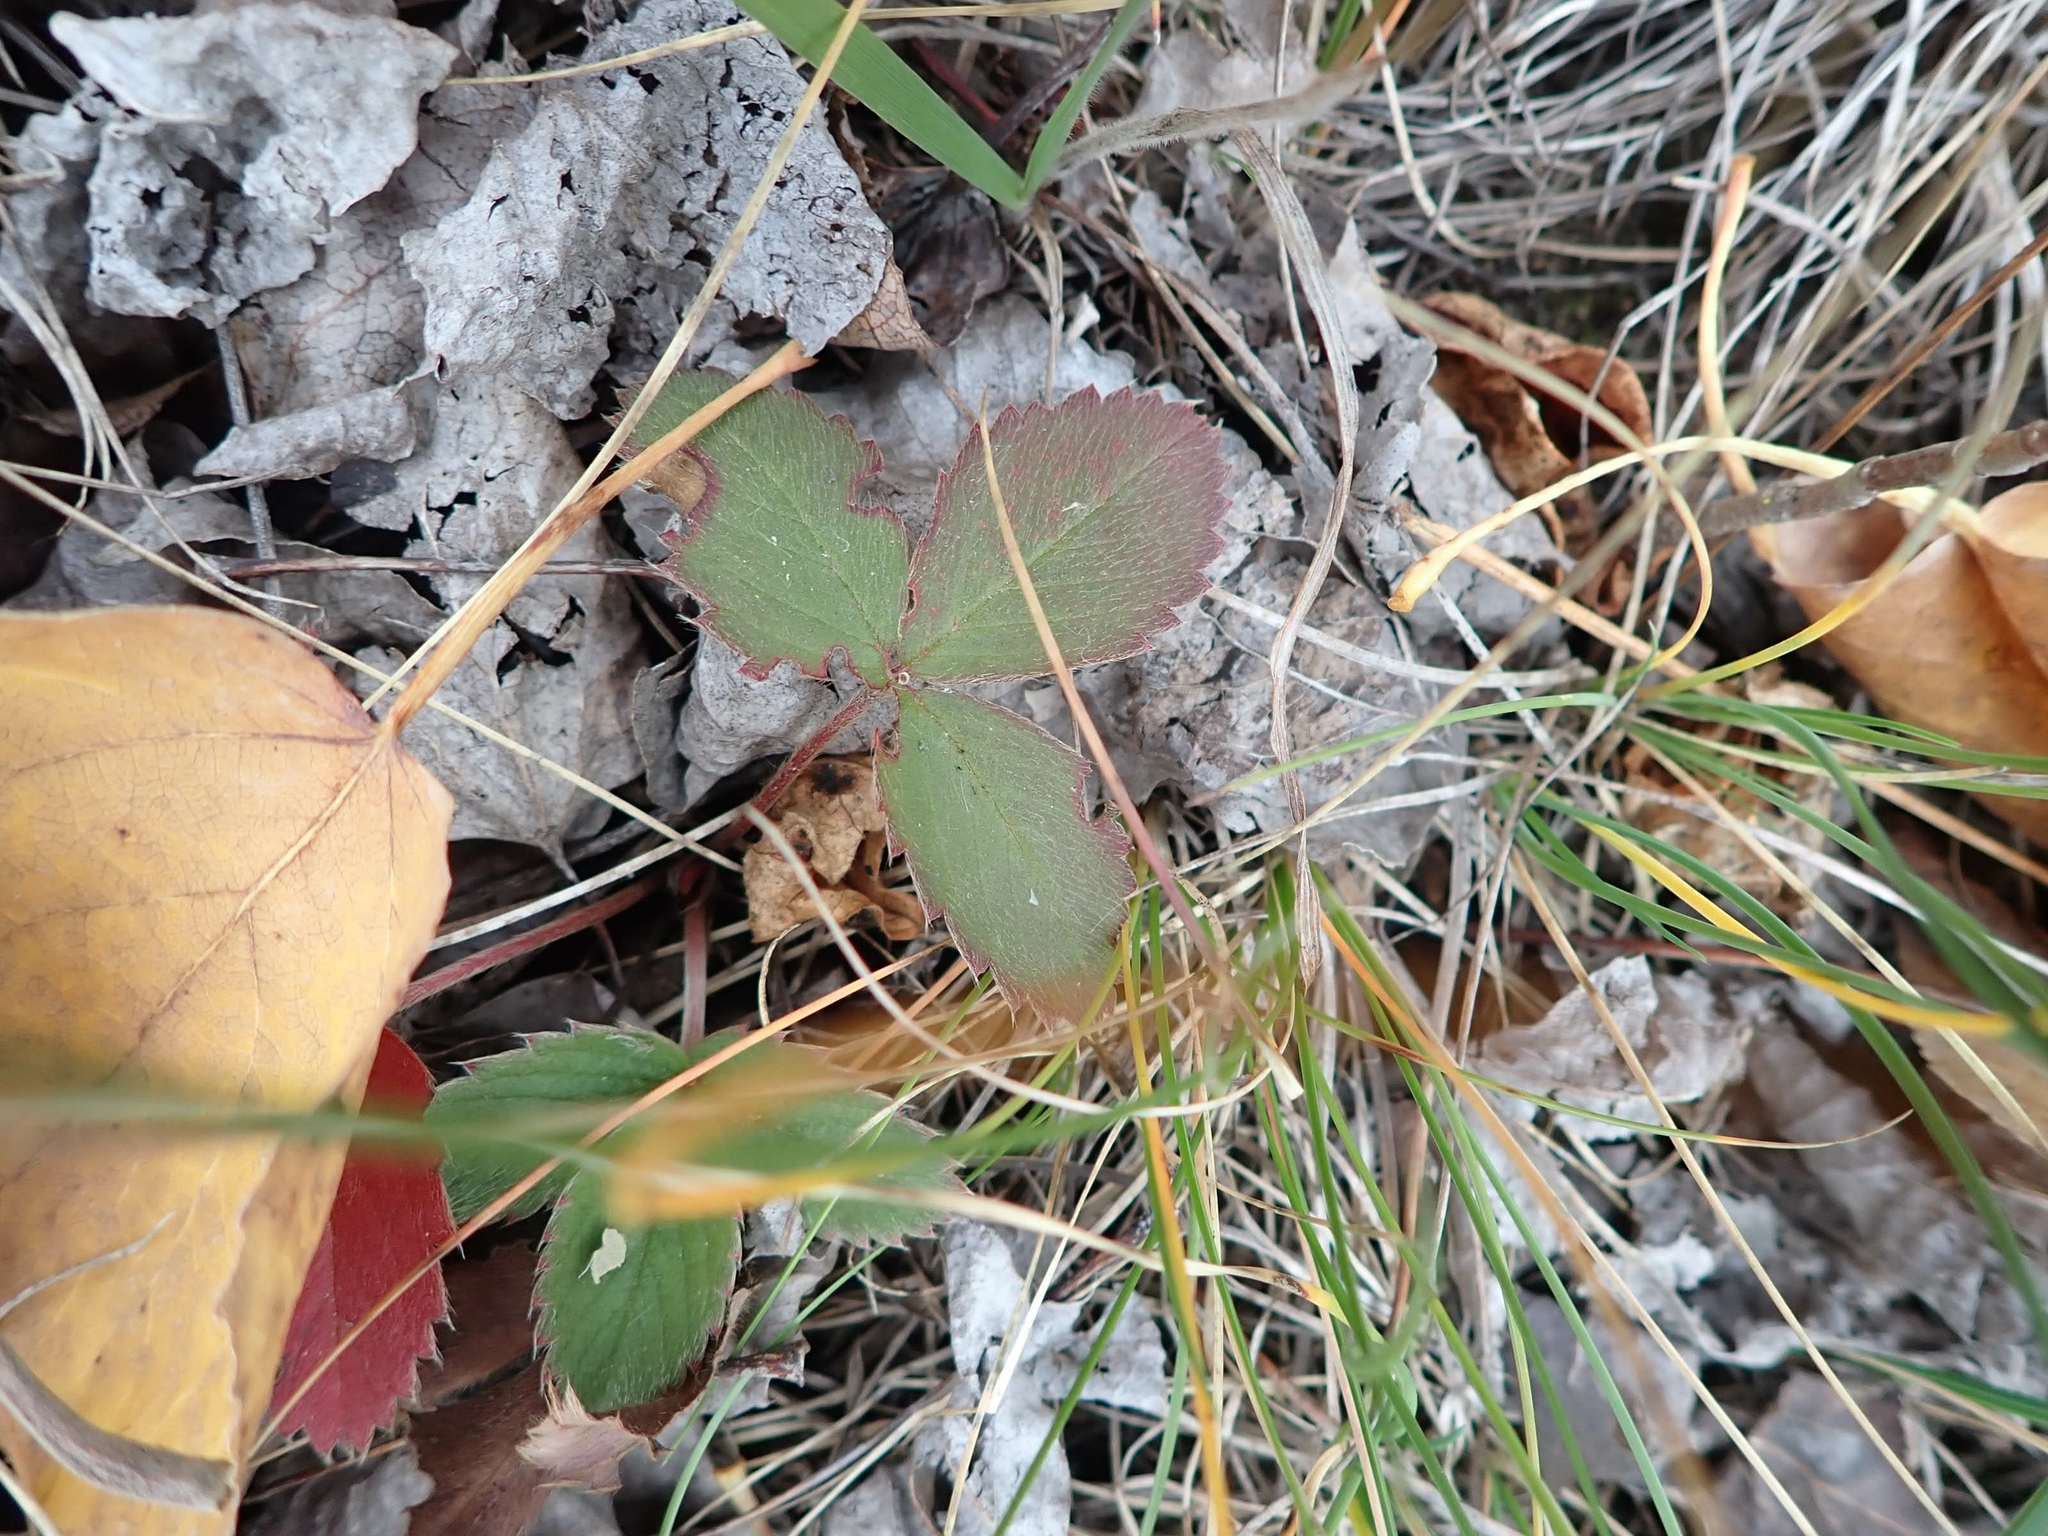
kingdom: Plantae
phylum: Tracheophyta
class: Magnoliopsida
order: Rosales
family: Rosaceae
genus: Fragaria
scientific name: Fragaria virginiana
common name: Thickleaved wild strawberry
